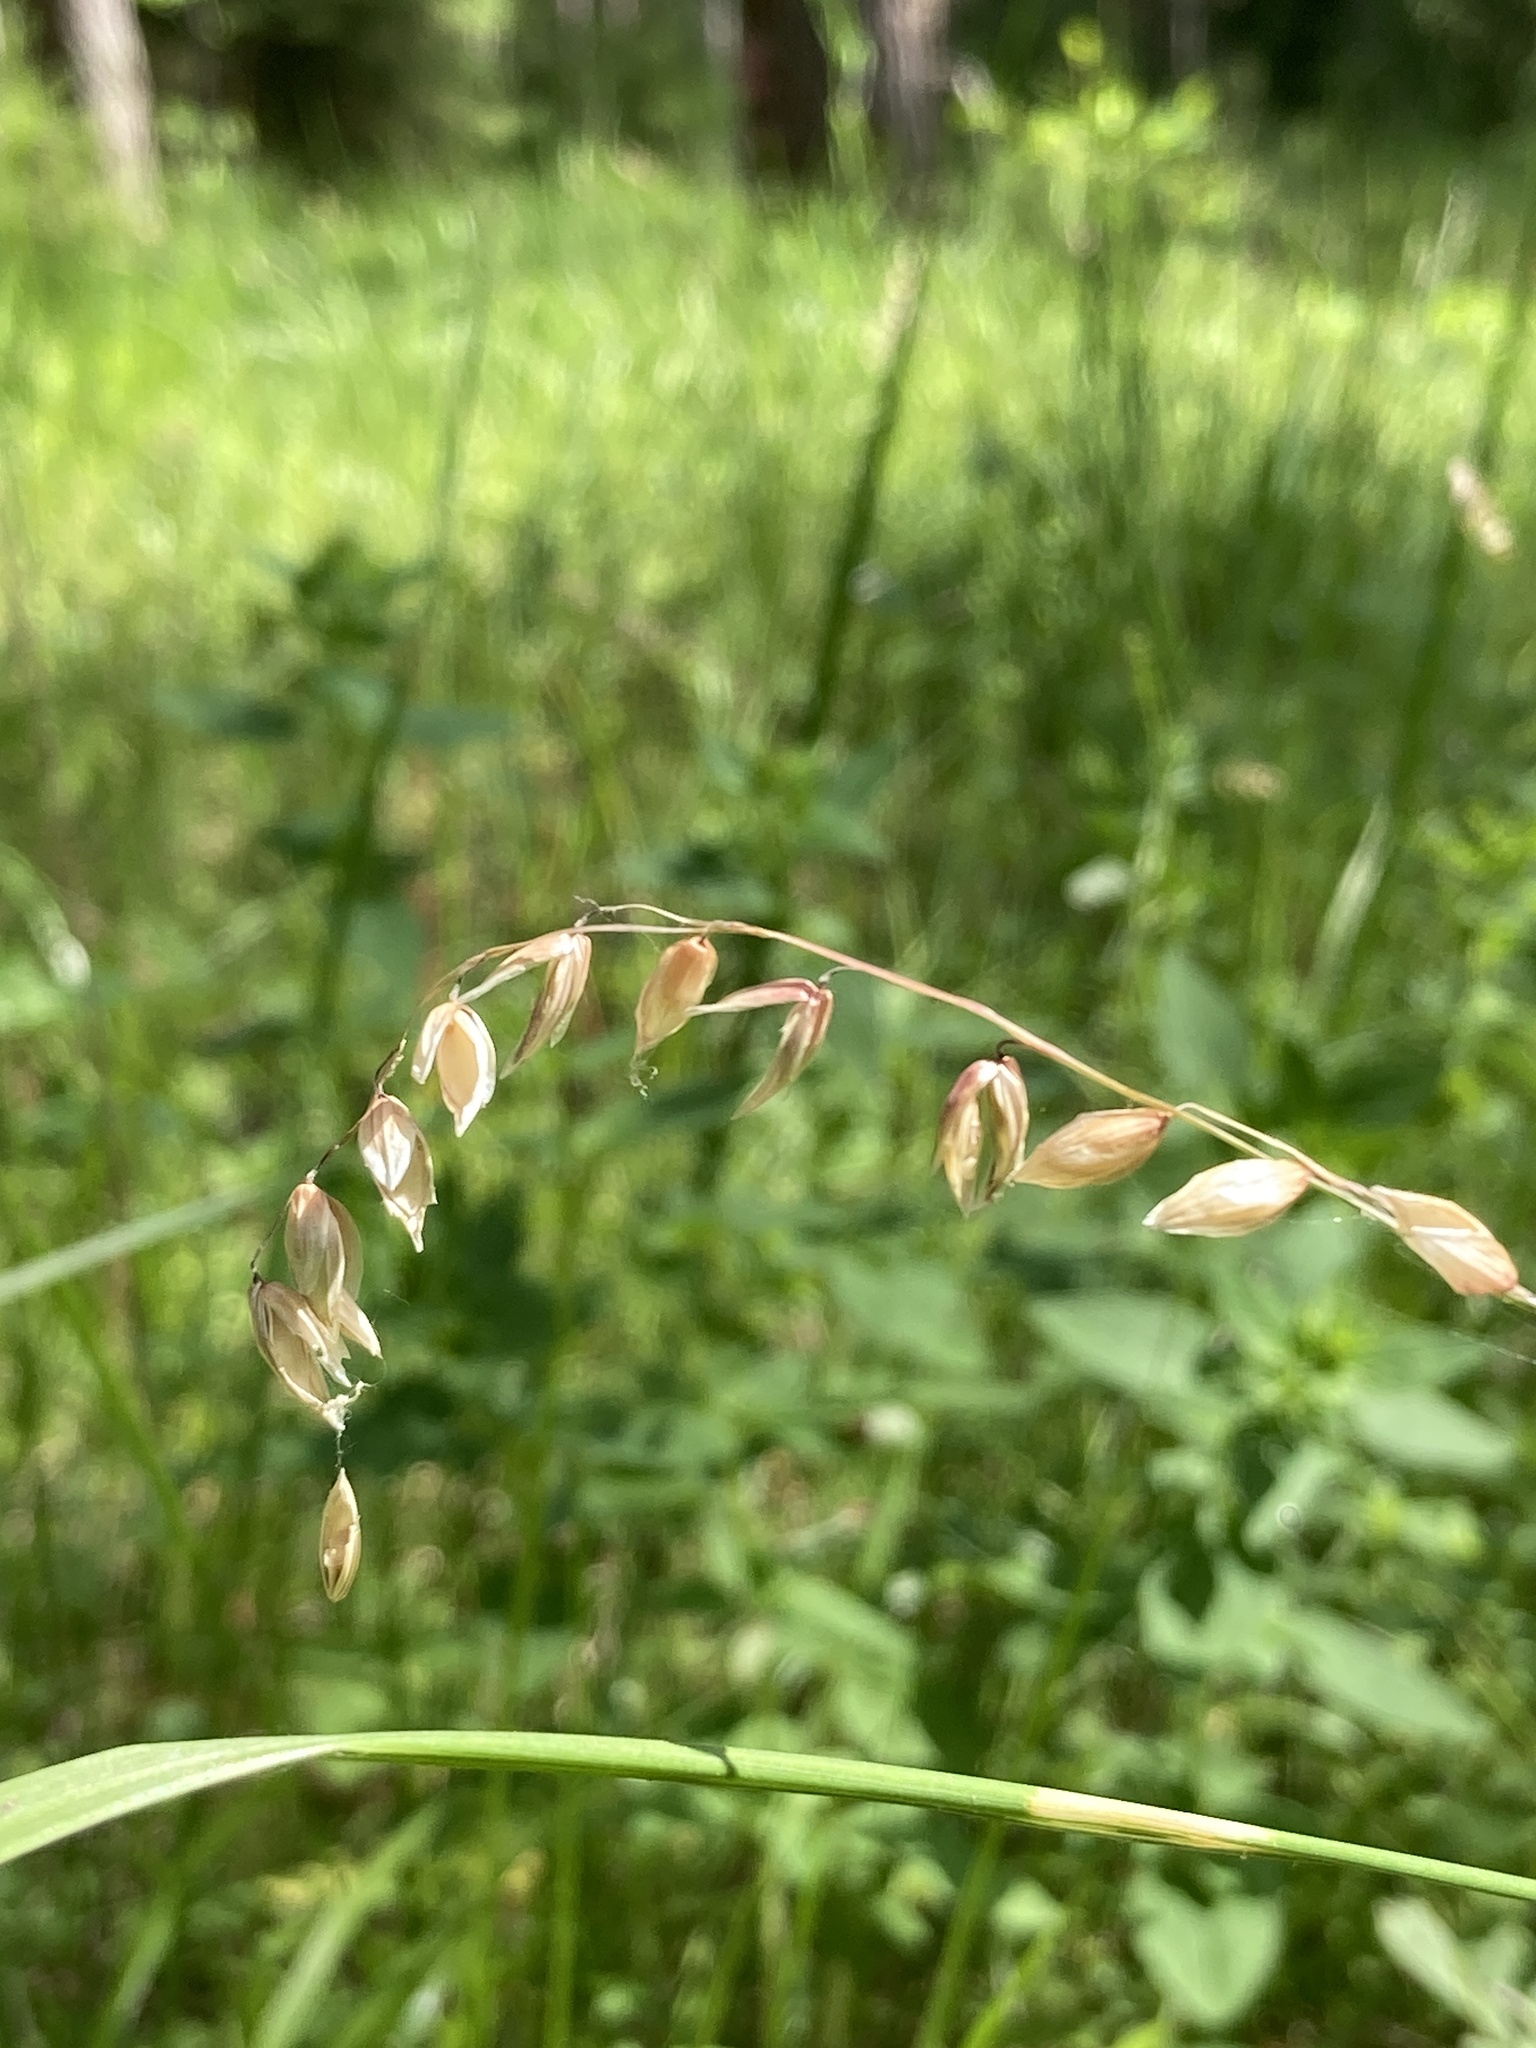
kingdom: Plantae
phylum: Tracheophyta
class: Liliopsida
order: Poales
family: Poaceae
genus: Melica
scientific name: Melica nutans
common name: Mountain melick
